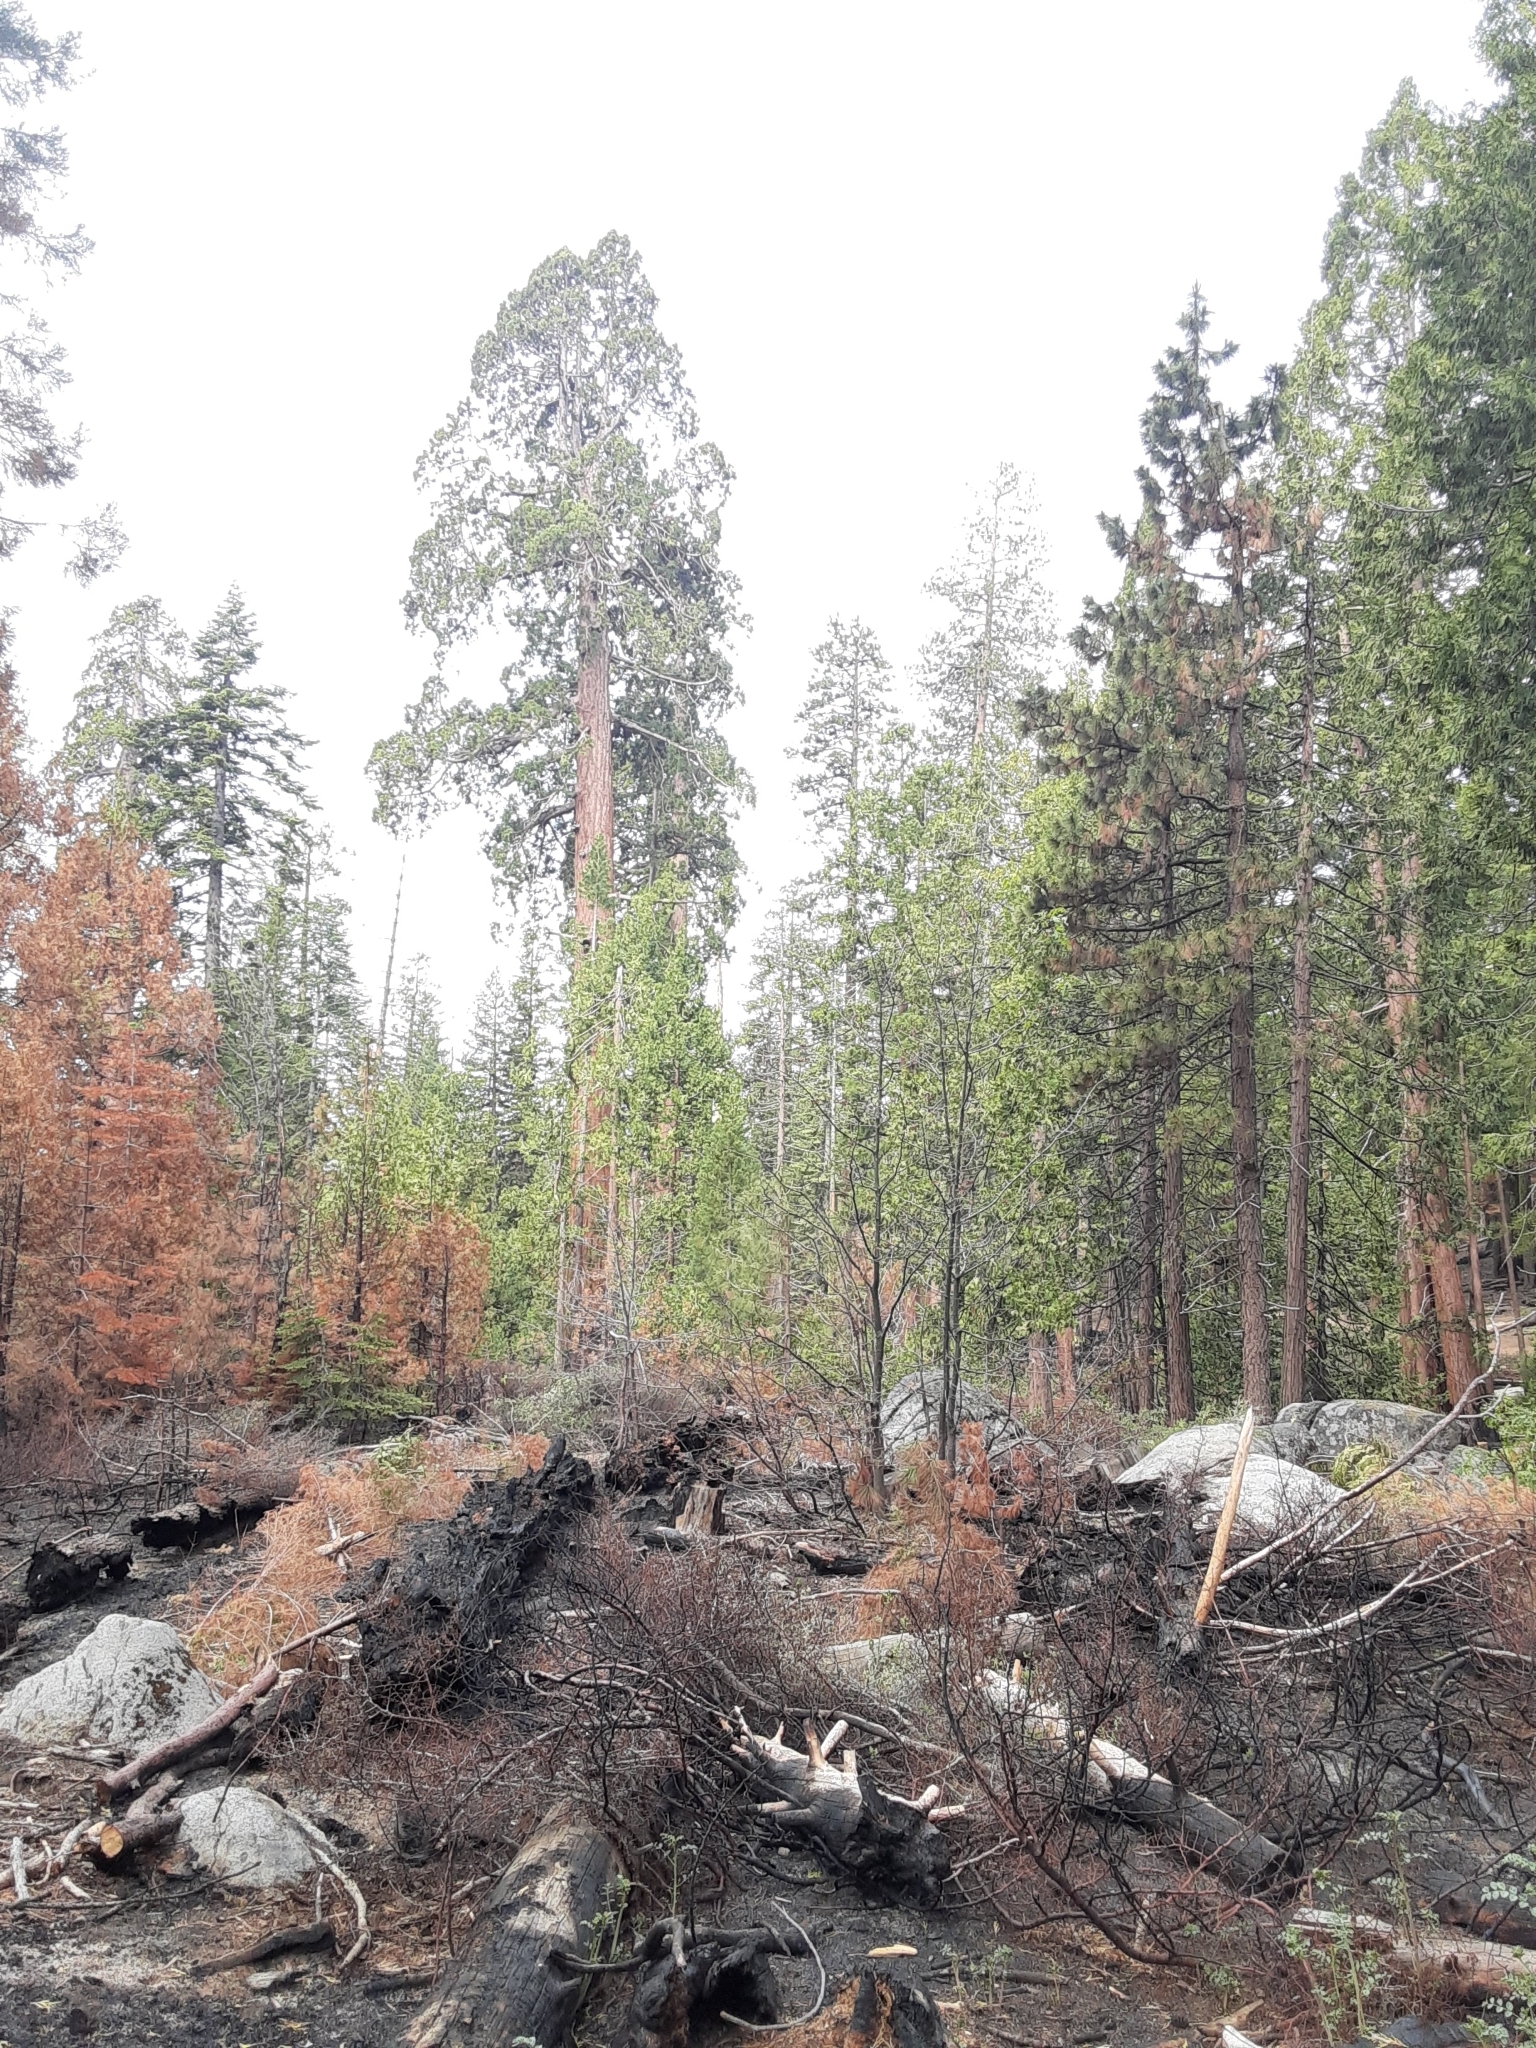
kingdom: Plantae
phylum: Tracheophyta
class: Pinopsida
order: Pinales
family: Cupressaceae
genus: Sequoiadendron
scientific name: Sequoiadendron giganteum
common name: Wellingtonia
